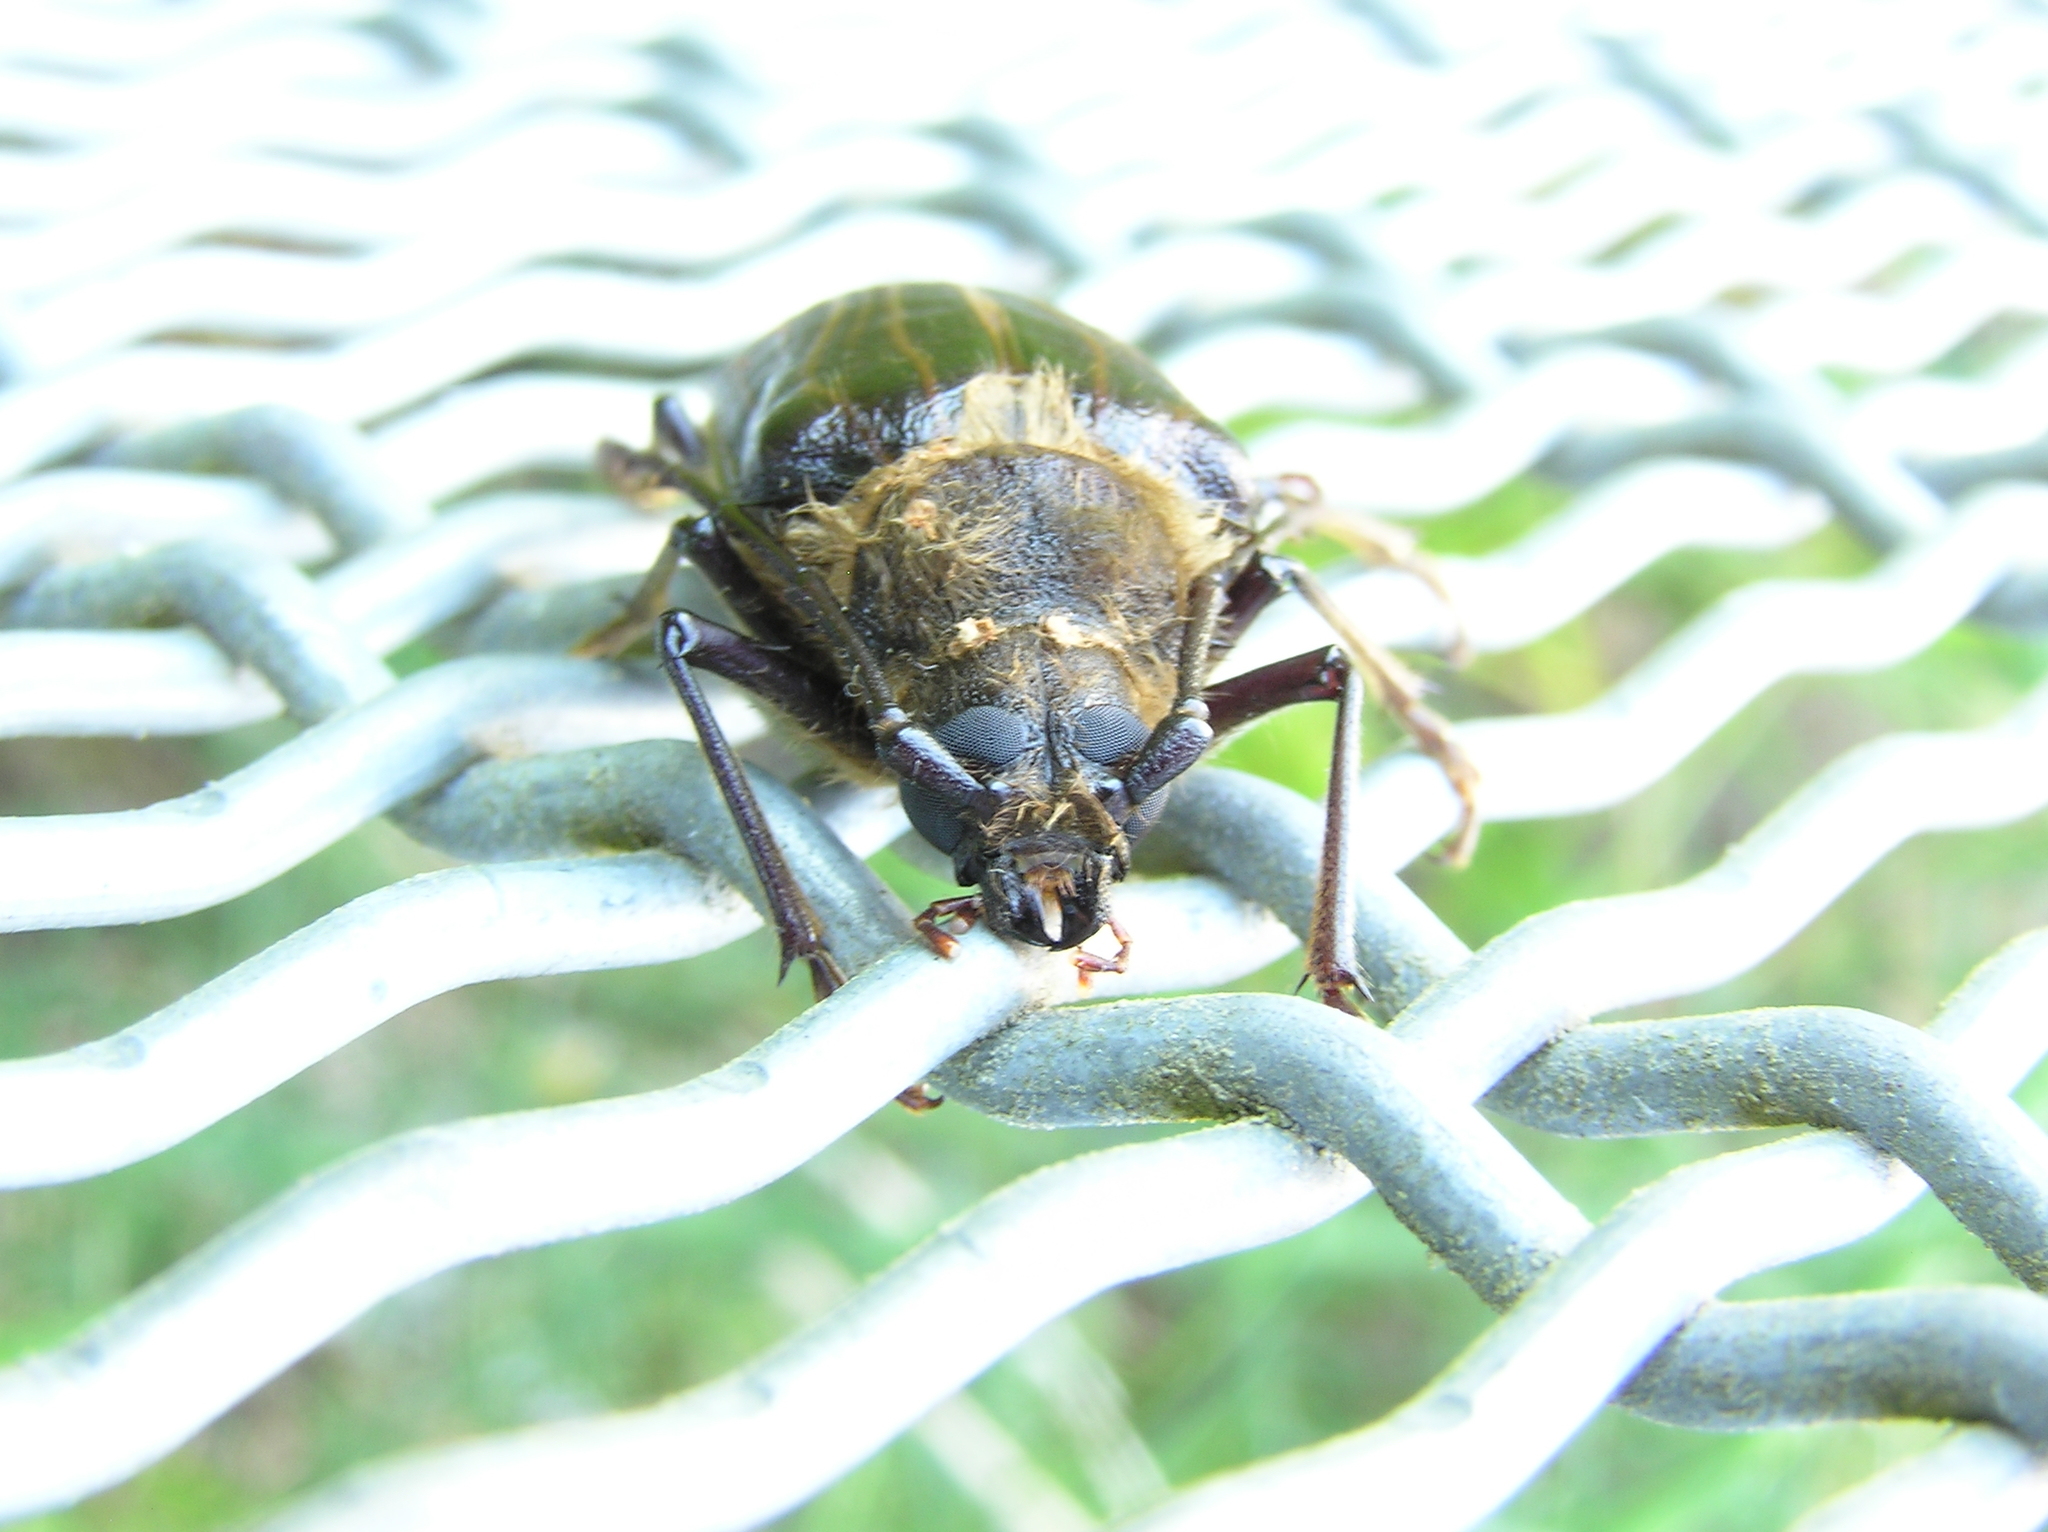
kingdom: Animalia
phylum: Arthropoda
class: Insecta
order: Coleoptera
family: Cerambycidae
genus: Prionoplus
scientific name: Prionoplus reticularis
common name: Huhu beetle
